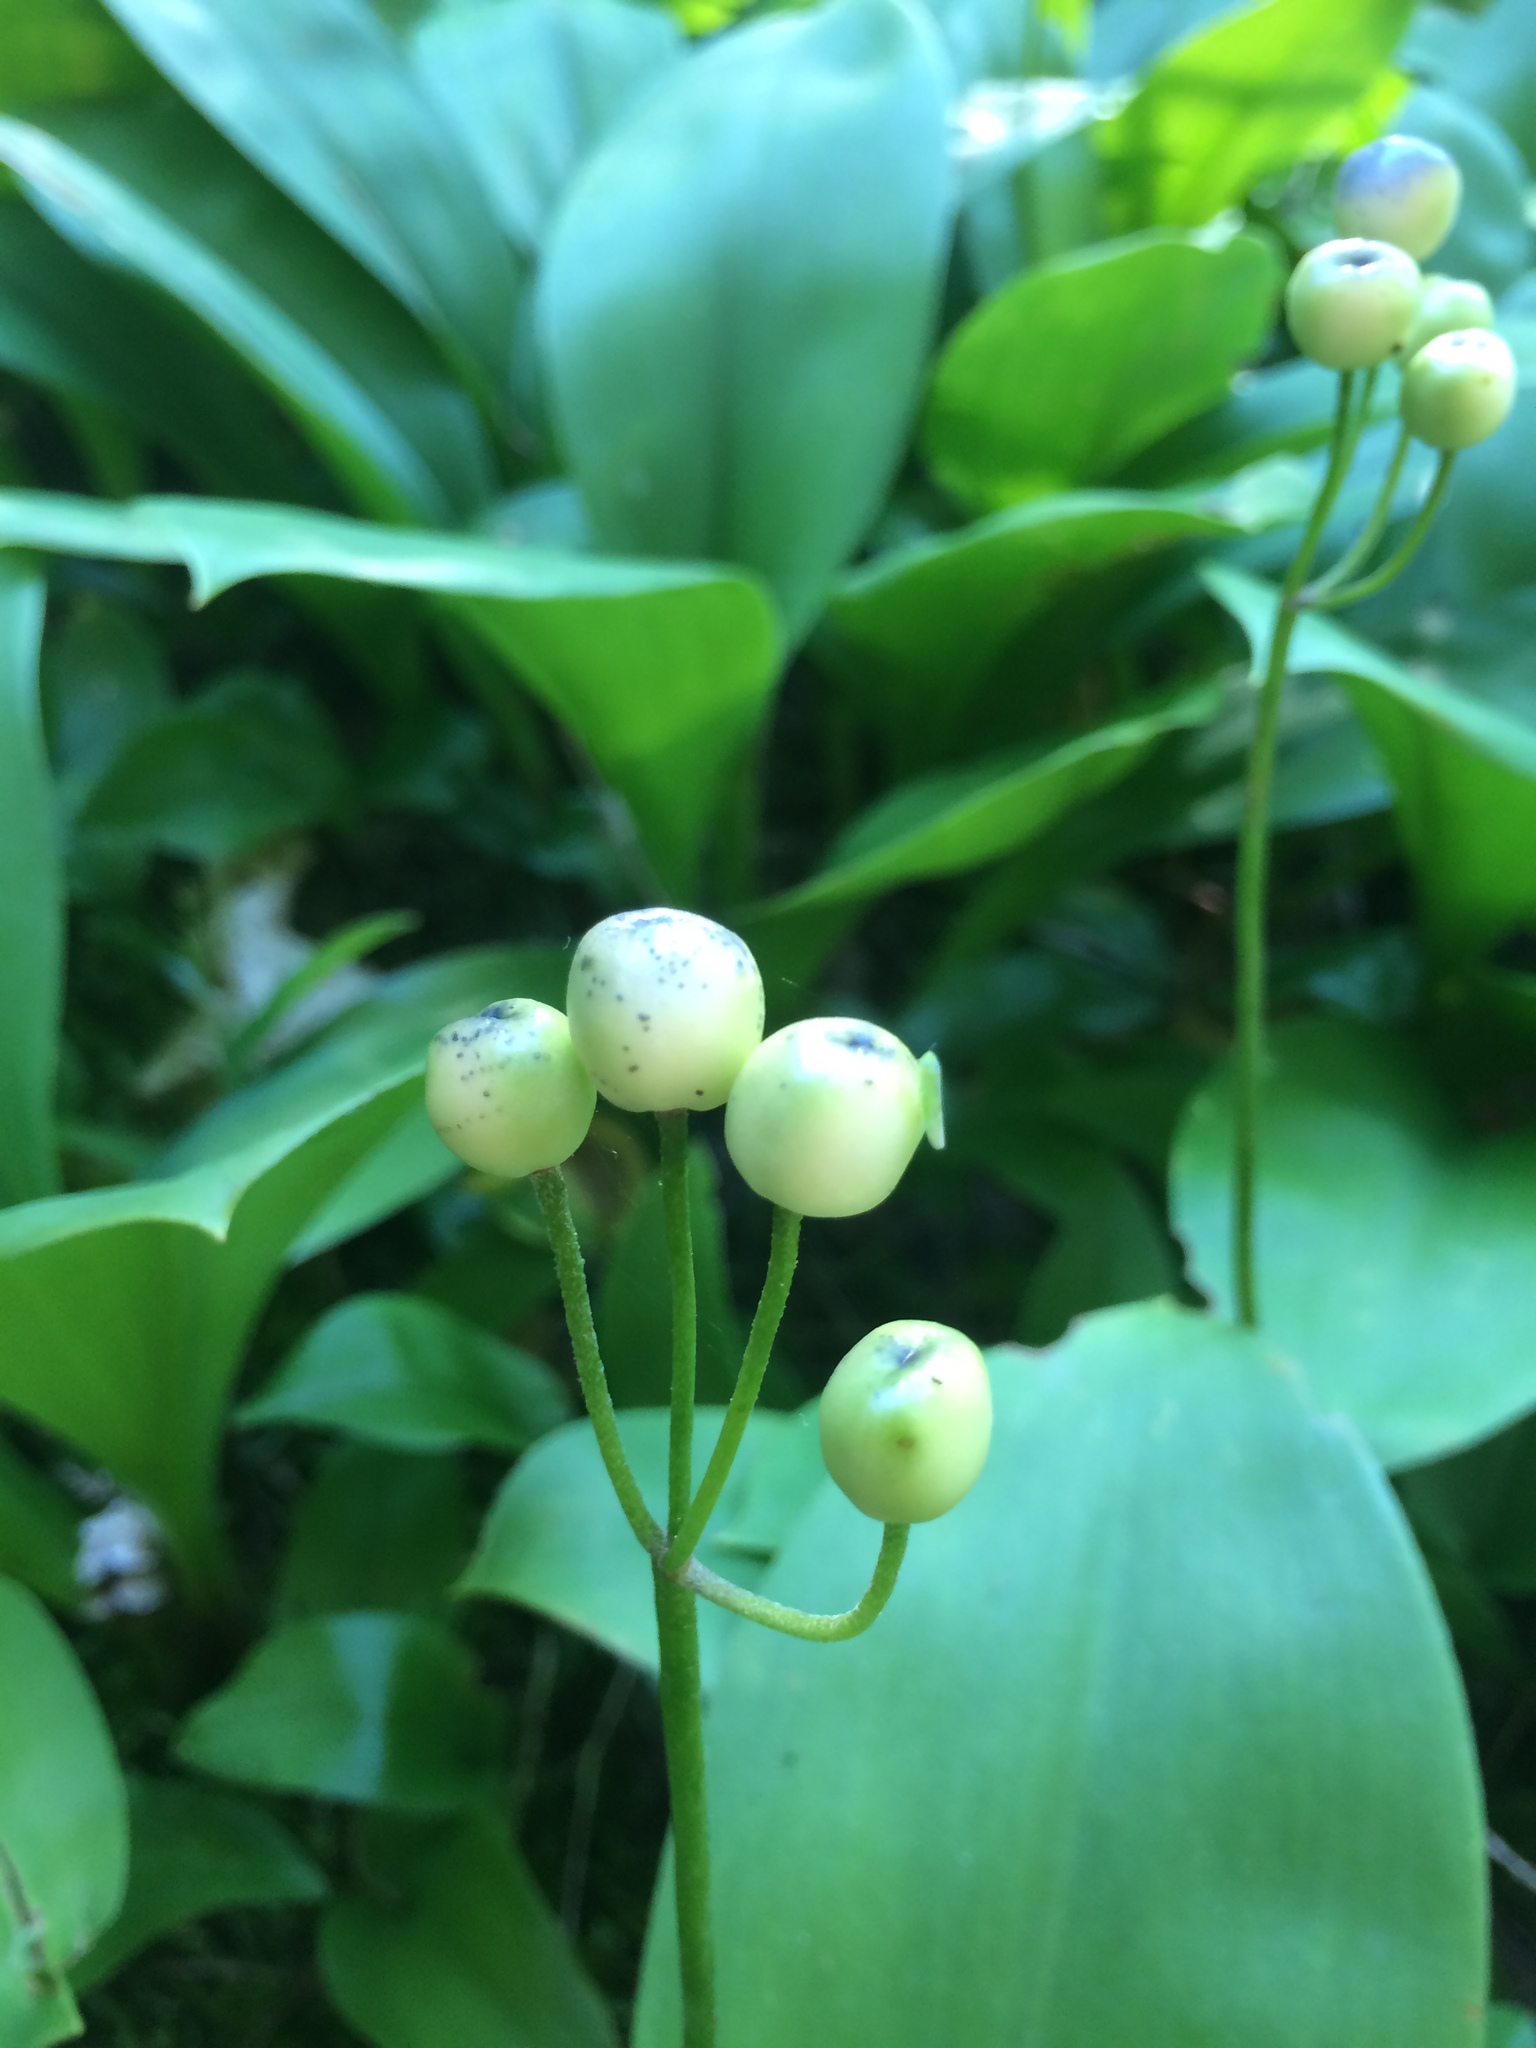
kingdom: Plantae
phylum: Tracheophyta
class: Liliopsida
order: Liliales
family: Liliaceae
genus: Clintonia
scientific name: Clintonia borealis
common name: Yellow clintonia
